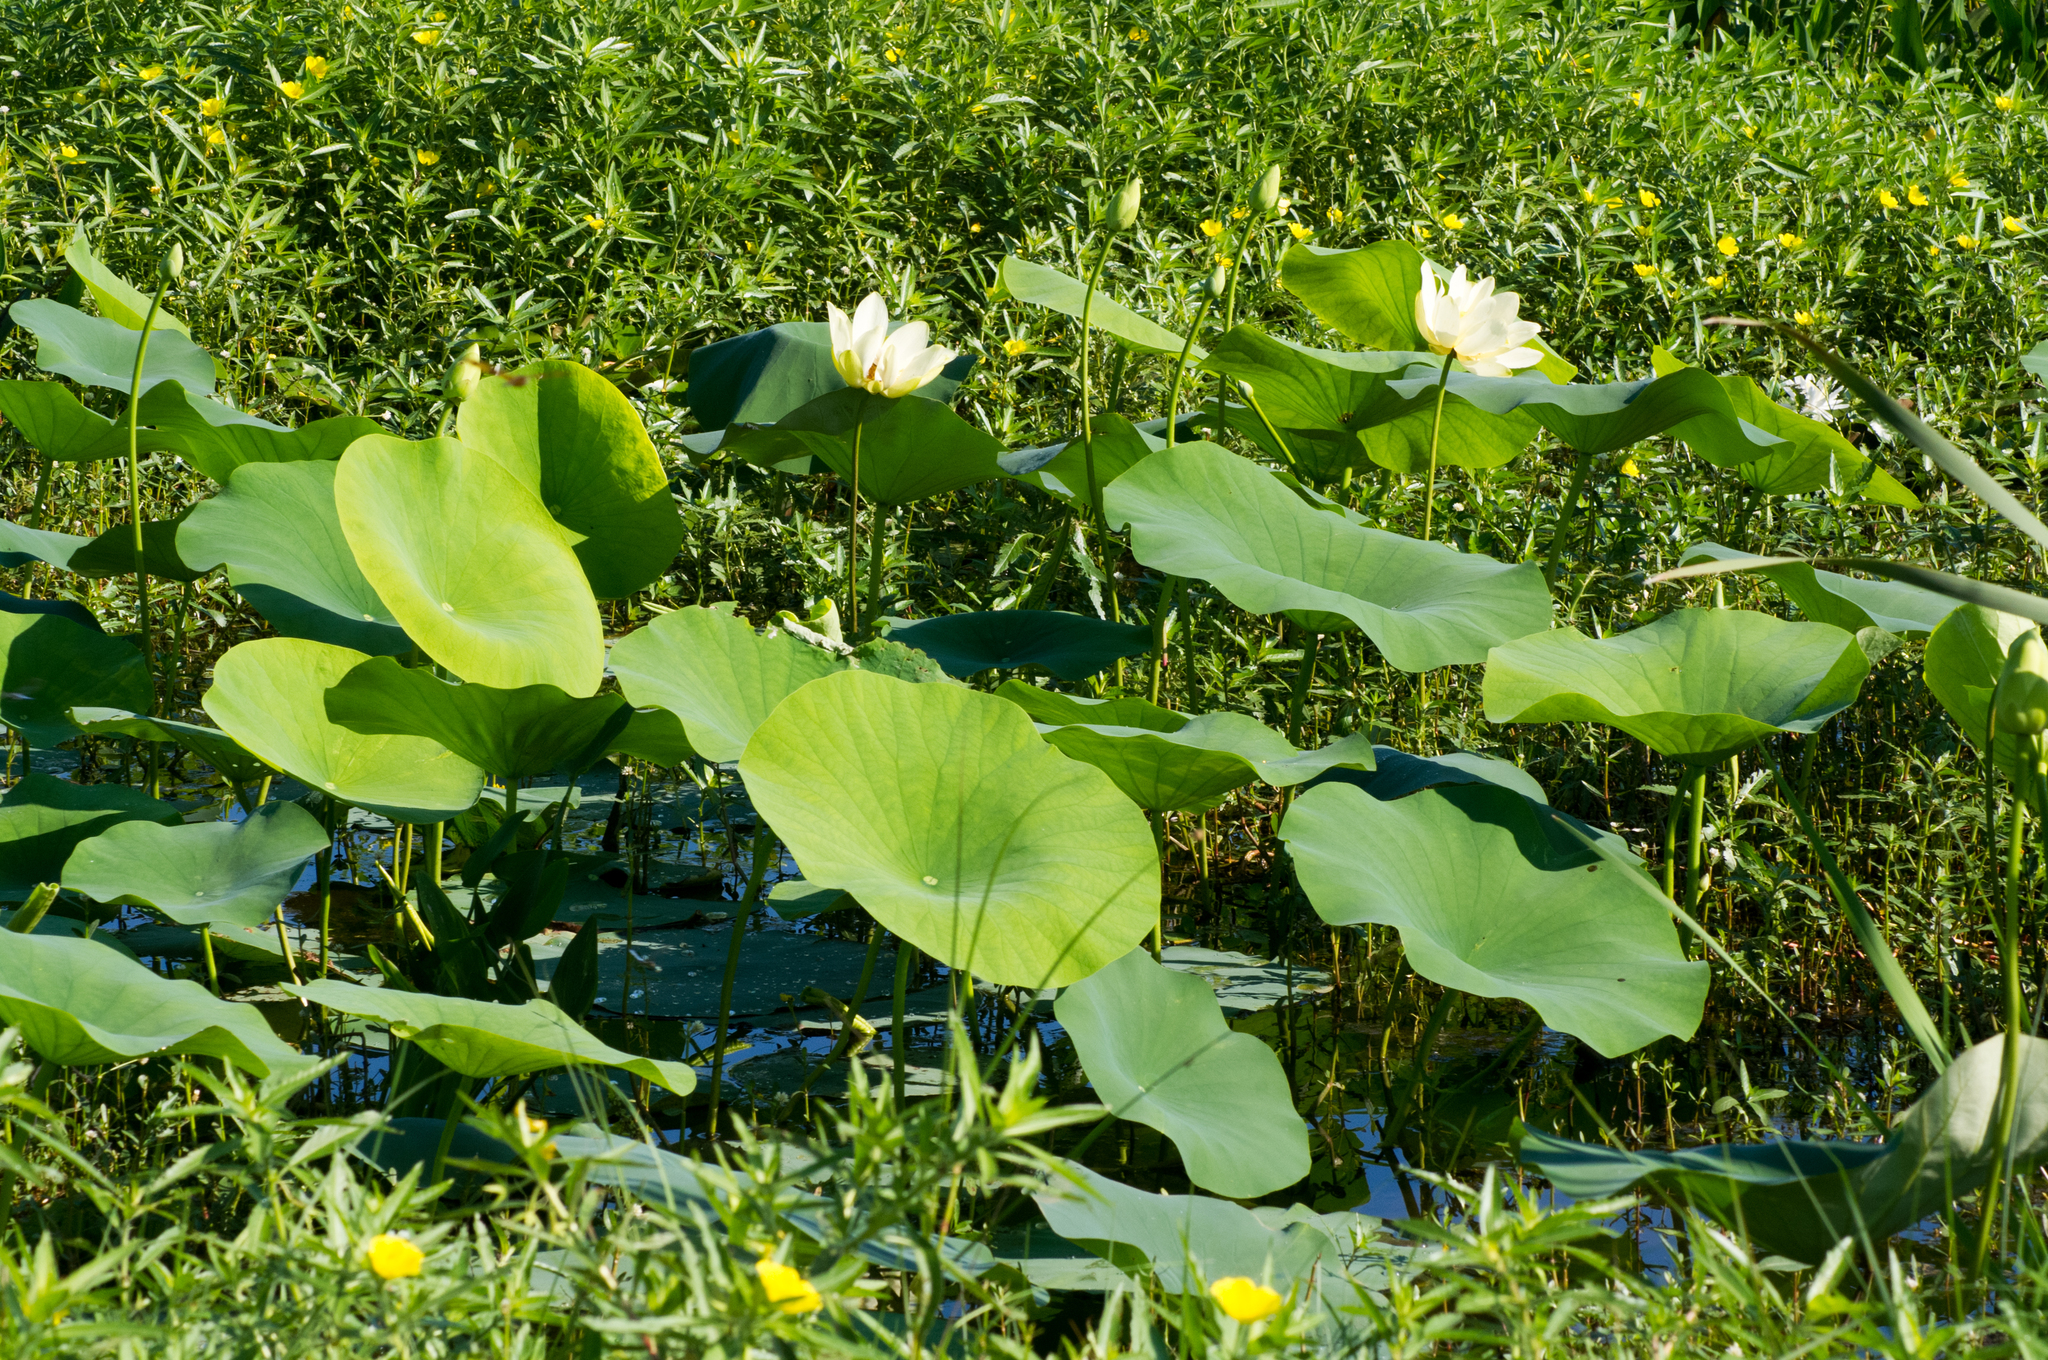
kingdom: Plantae
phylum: Tracheophyta
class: Magnoliopsida
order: Proteales
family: Nelumbonaceae
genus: Nelumbo
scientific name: Nelumbo lutea
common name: American lotus
